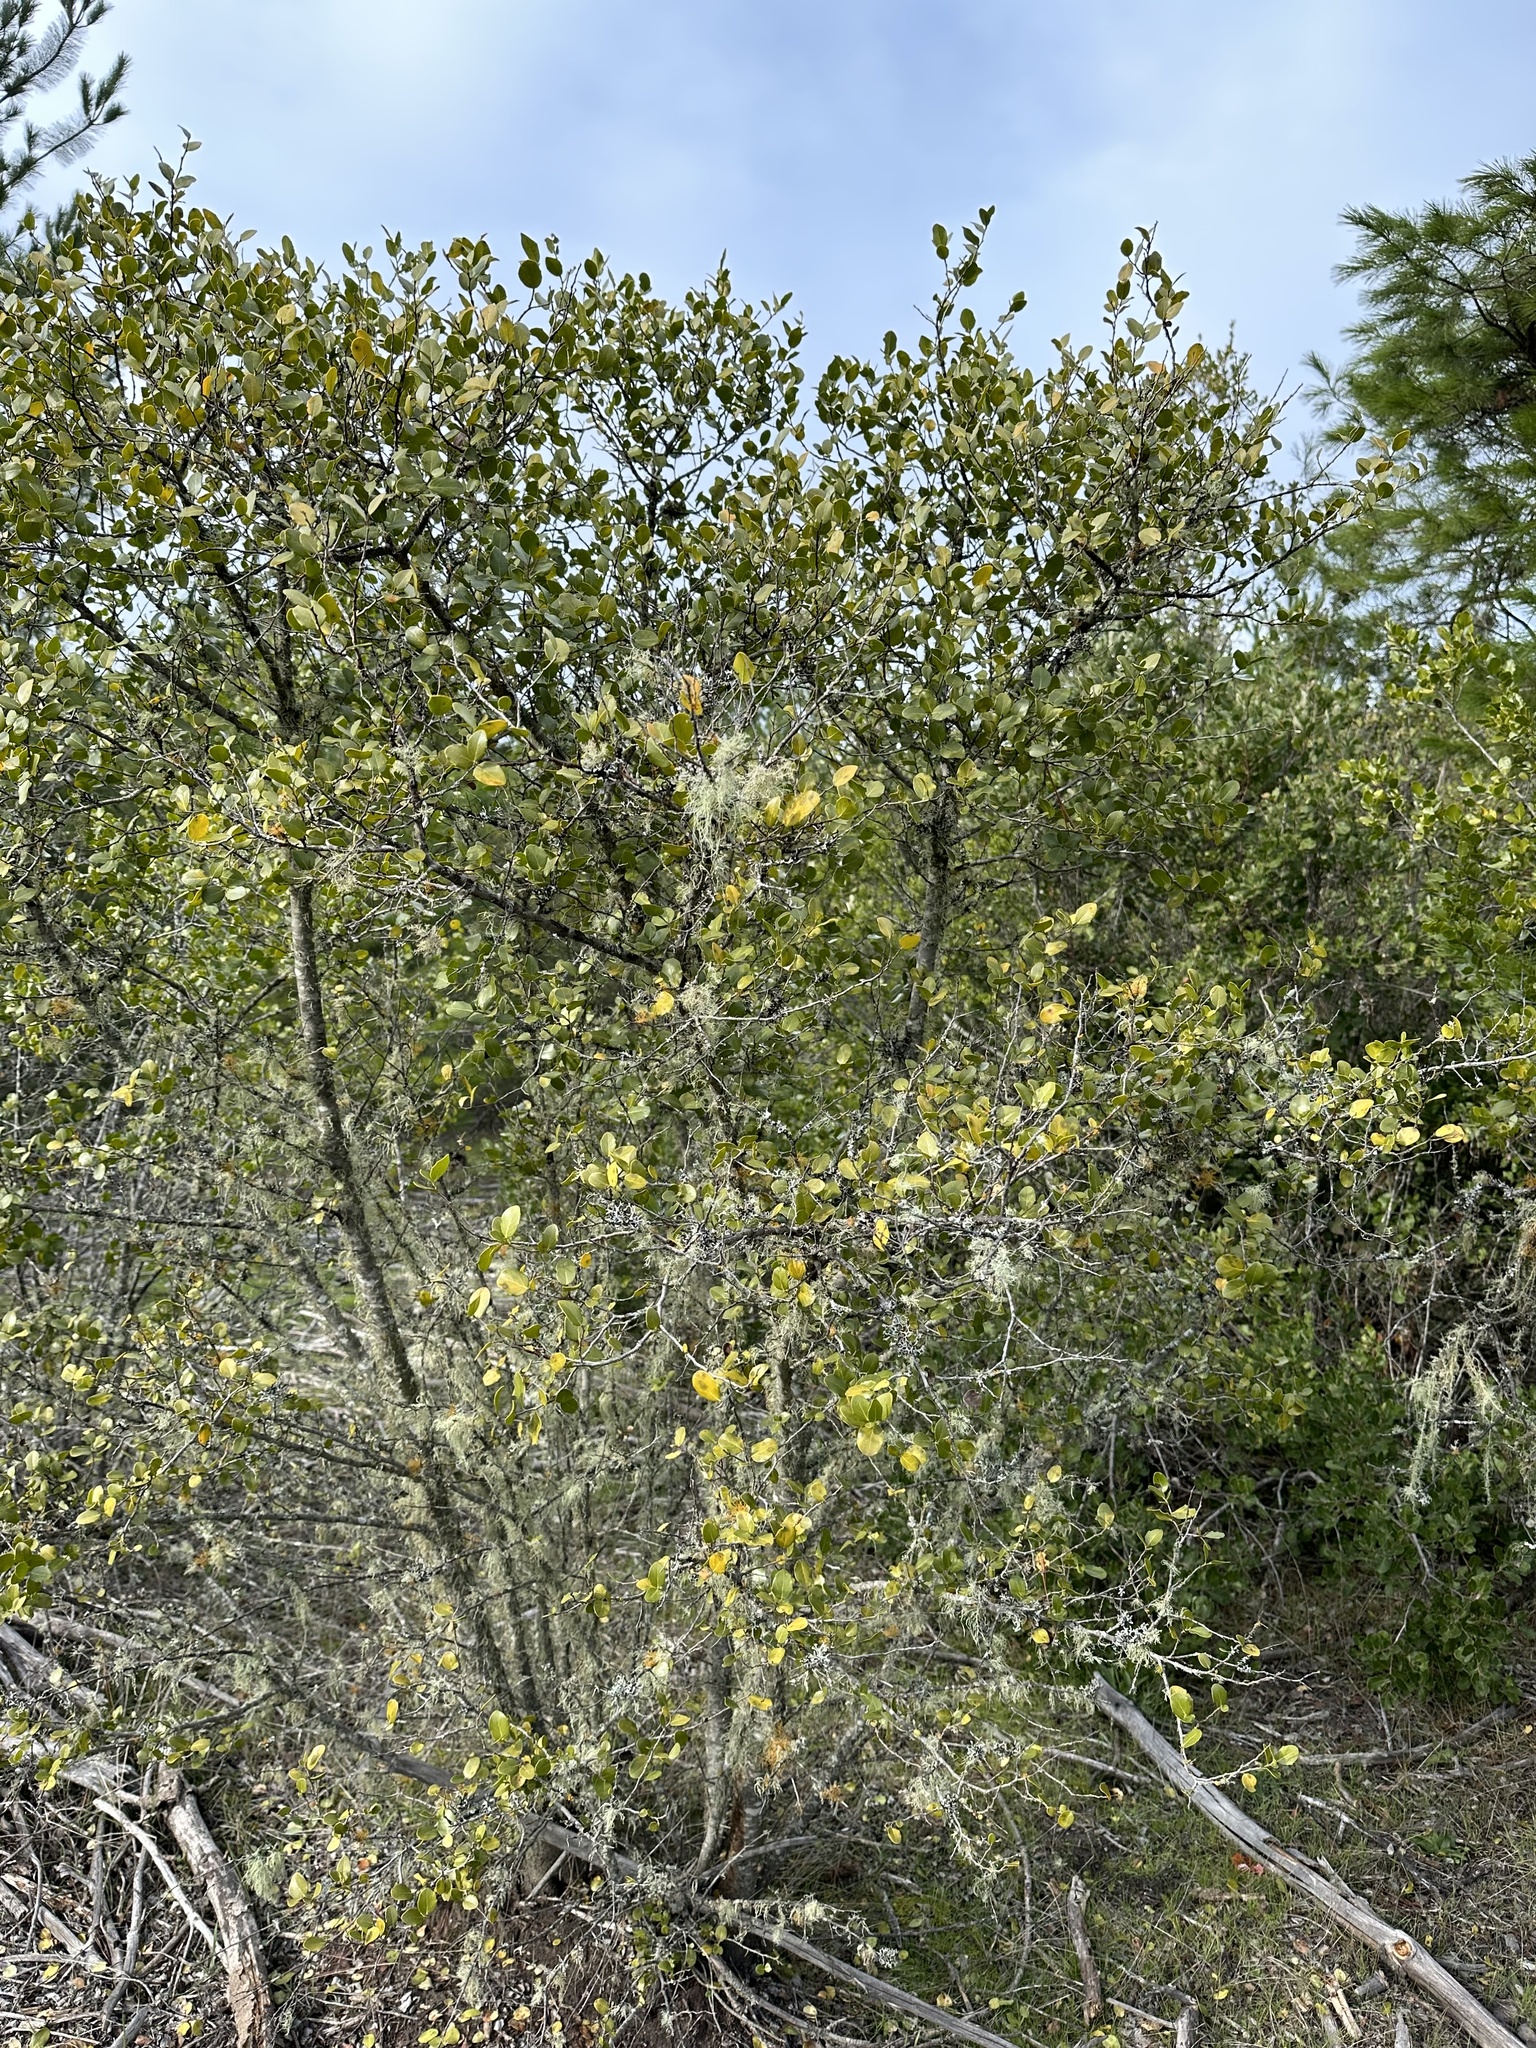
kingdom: Plantae
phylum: Tracheophyta
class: Magnoliopsida
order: Fabales
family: Quillajaceae
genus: Quillaja
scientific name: Quillaja saponaria
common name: Murillo's-bark
